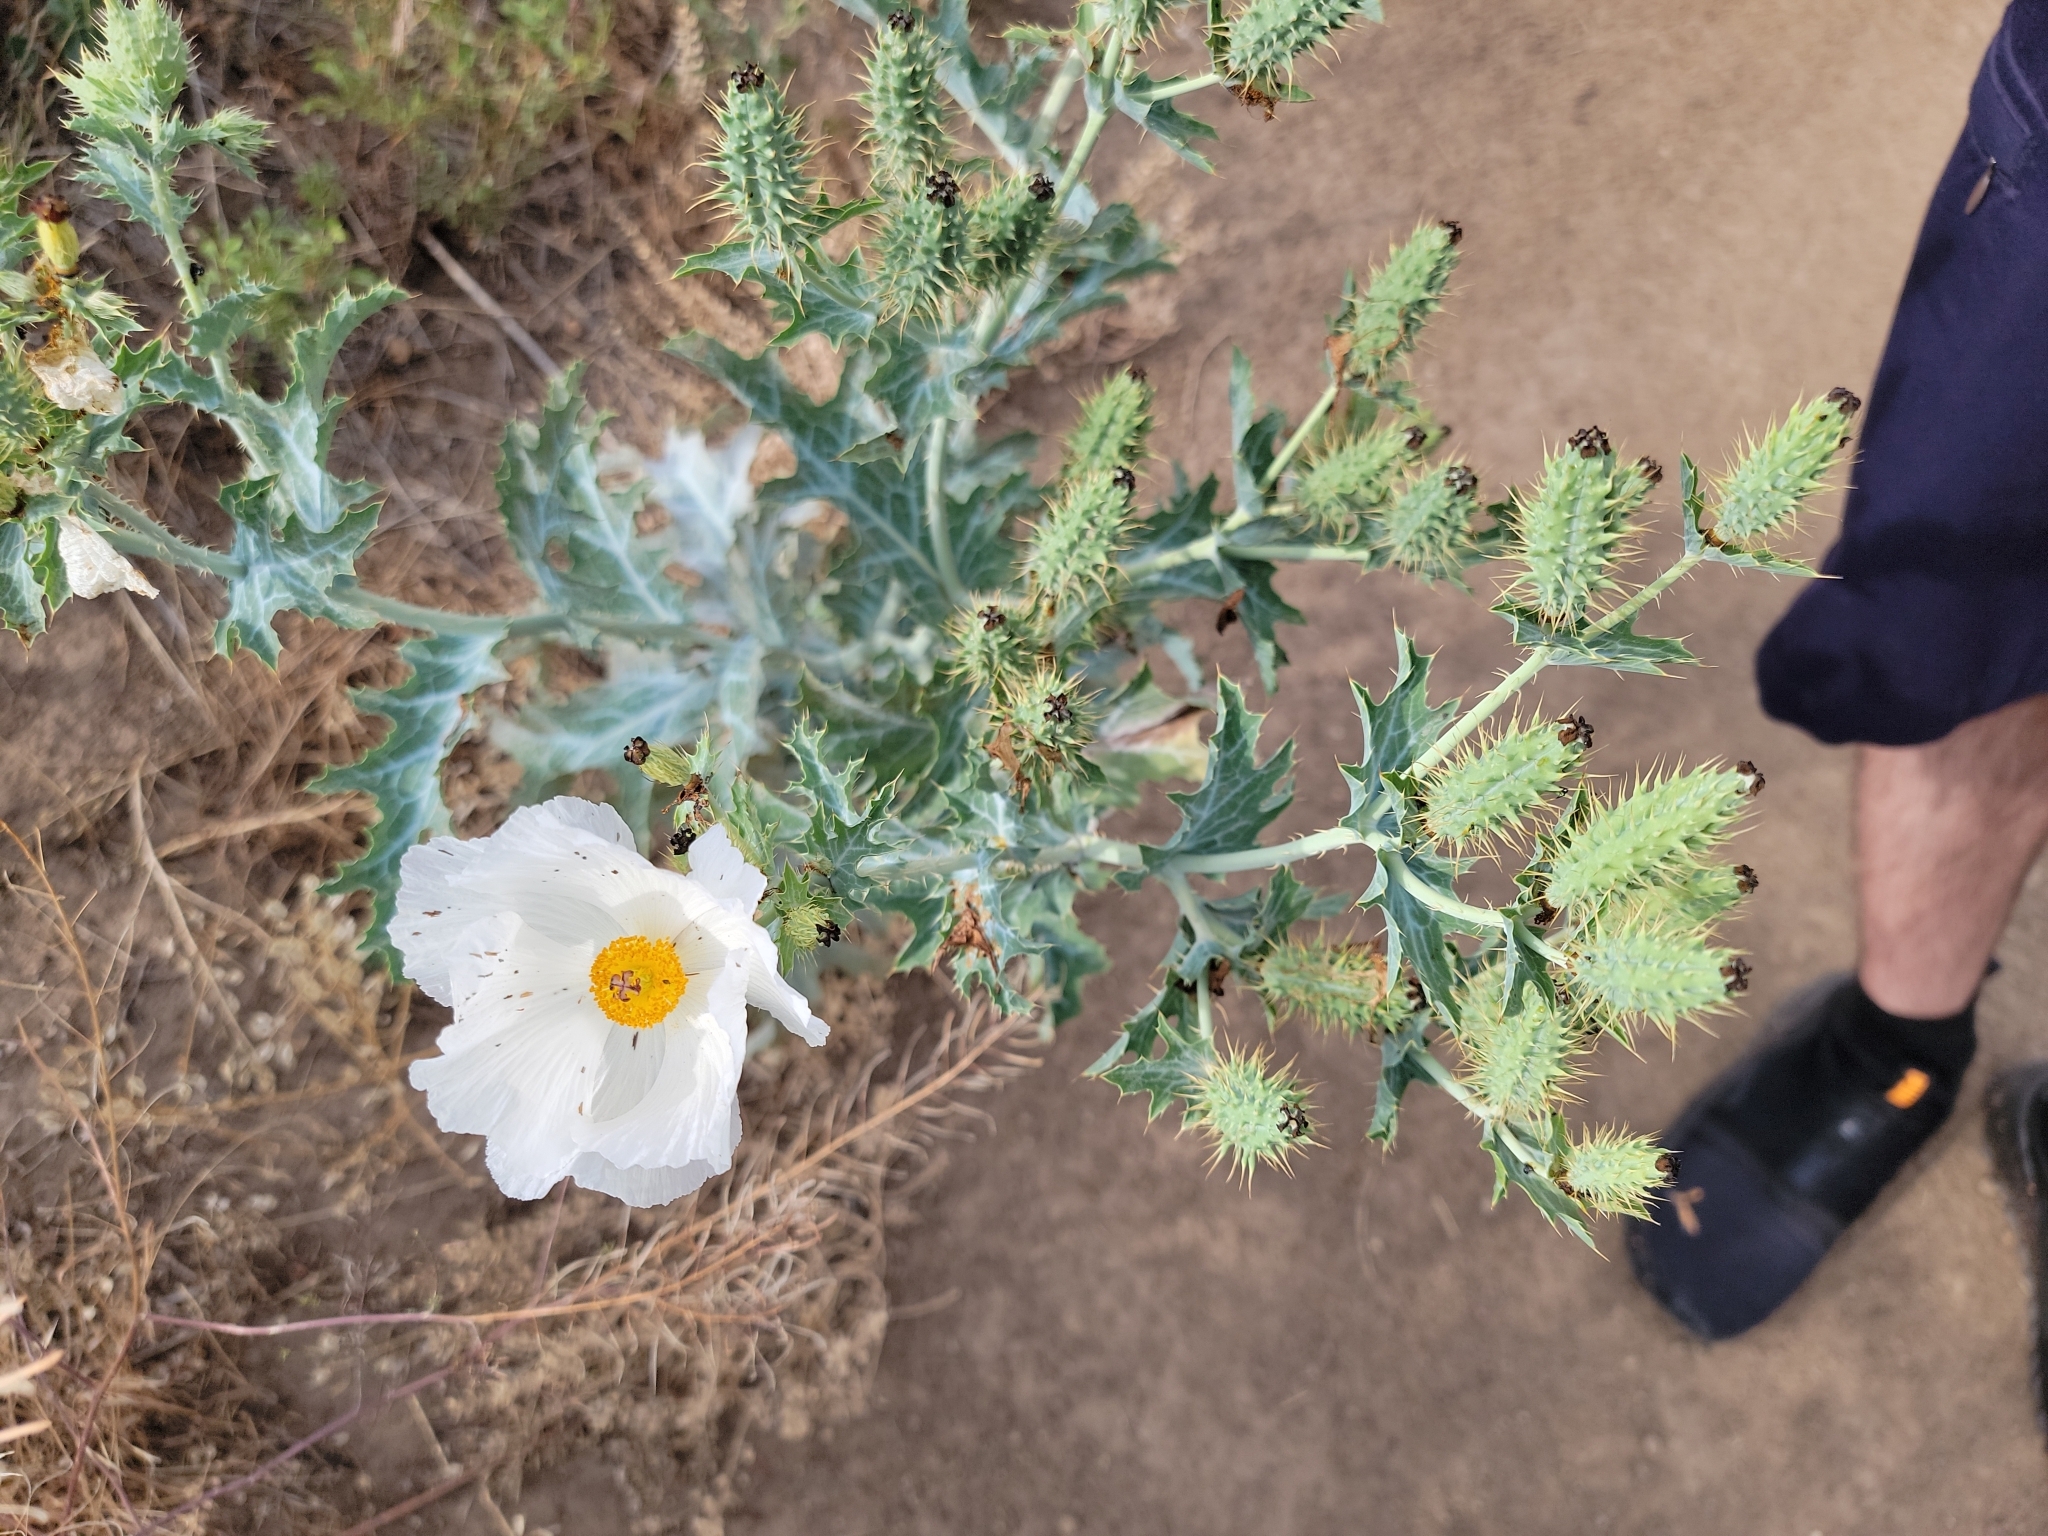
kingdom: Plantae
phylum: Tracheophyta
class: Magnoliopsida
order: Ranunculales
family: Papaveraceae
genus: Argemone
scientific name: Argemone polyanthemos
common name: Plains prickly-poppy
